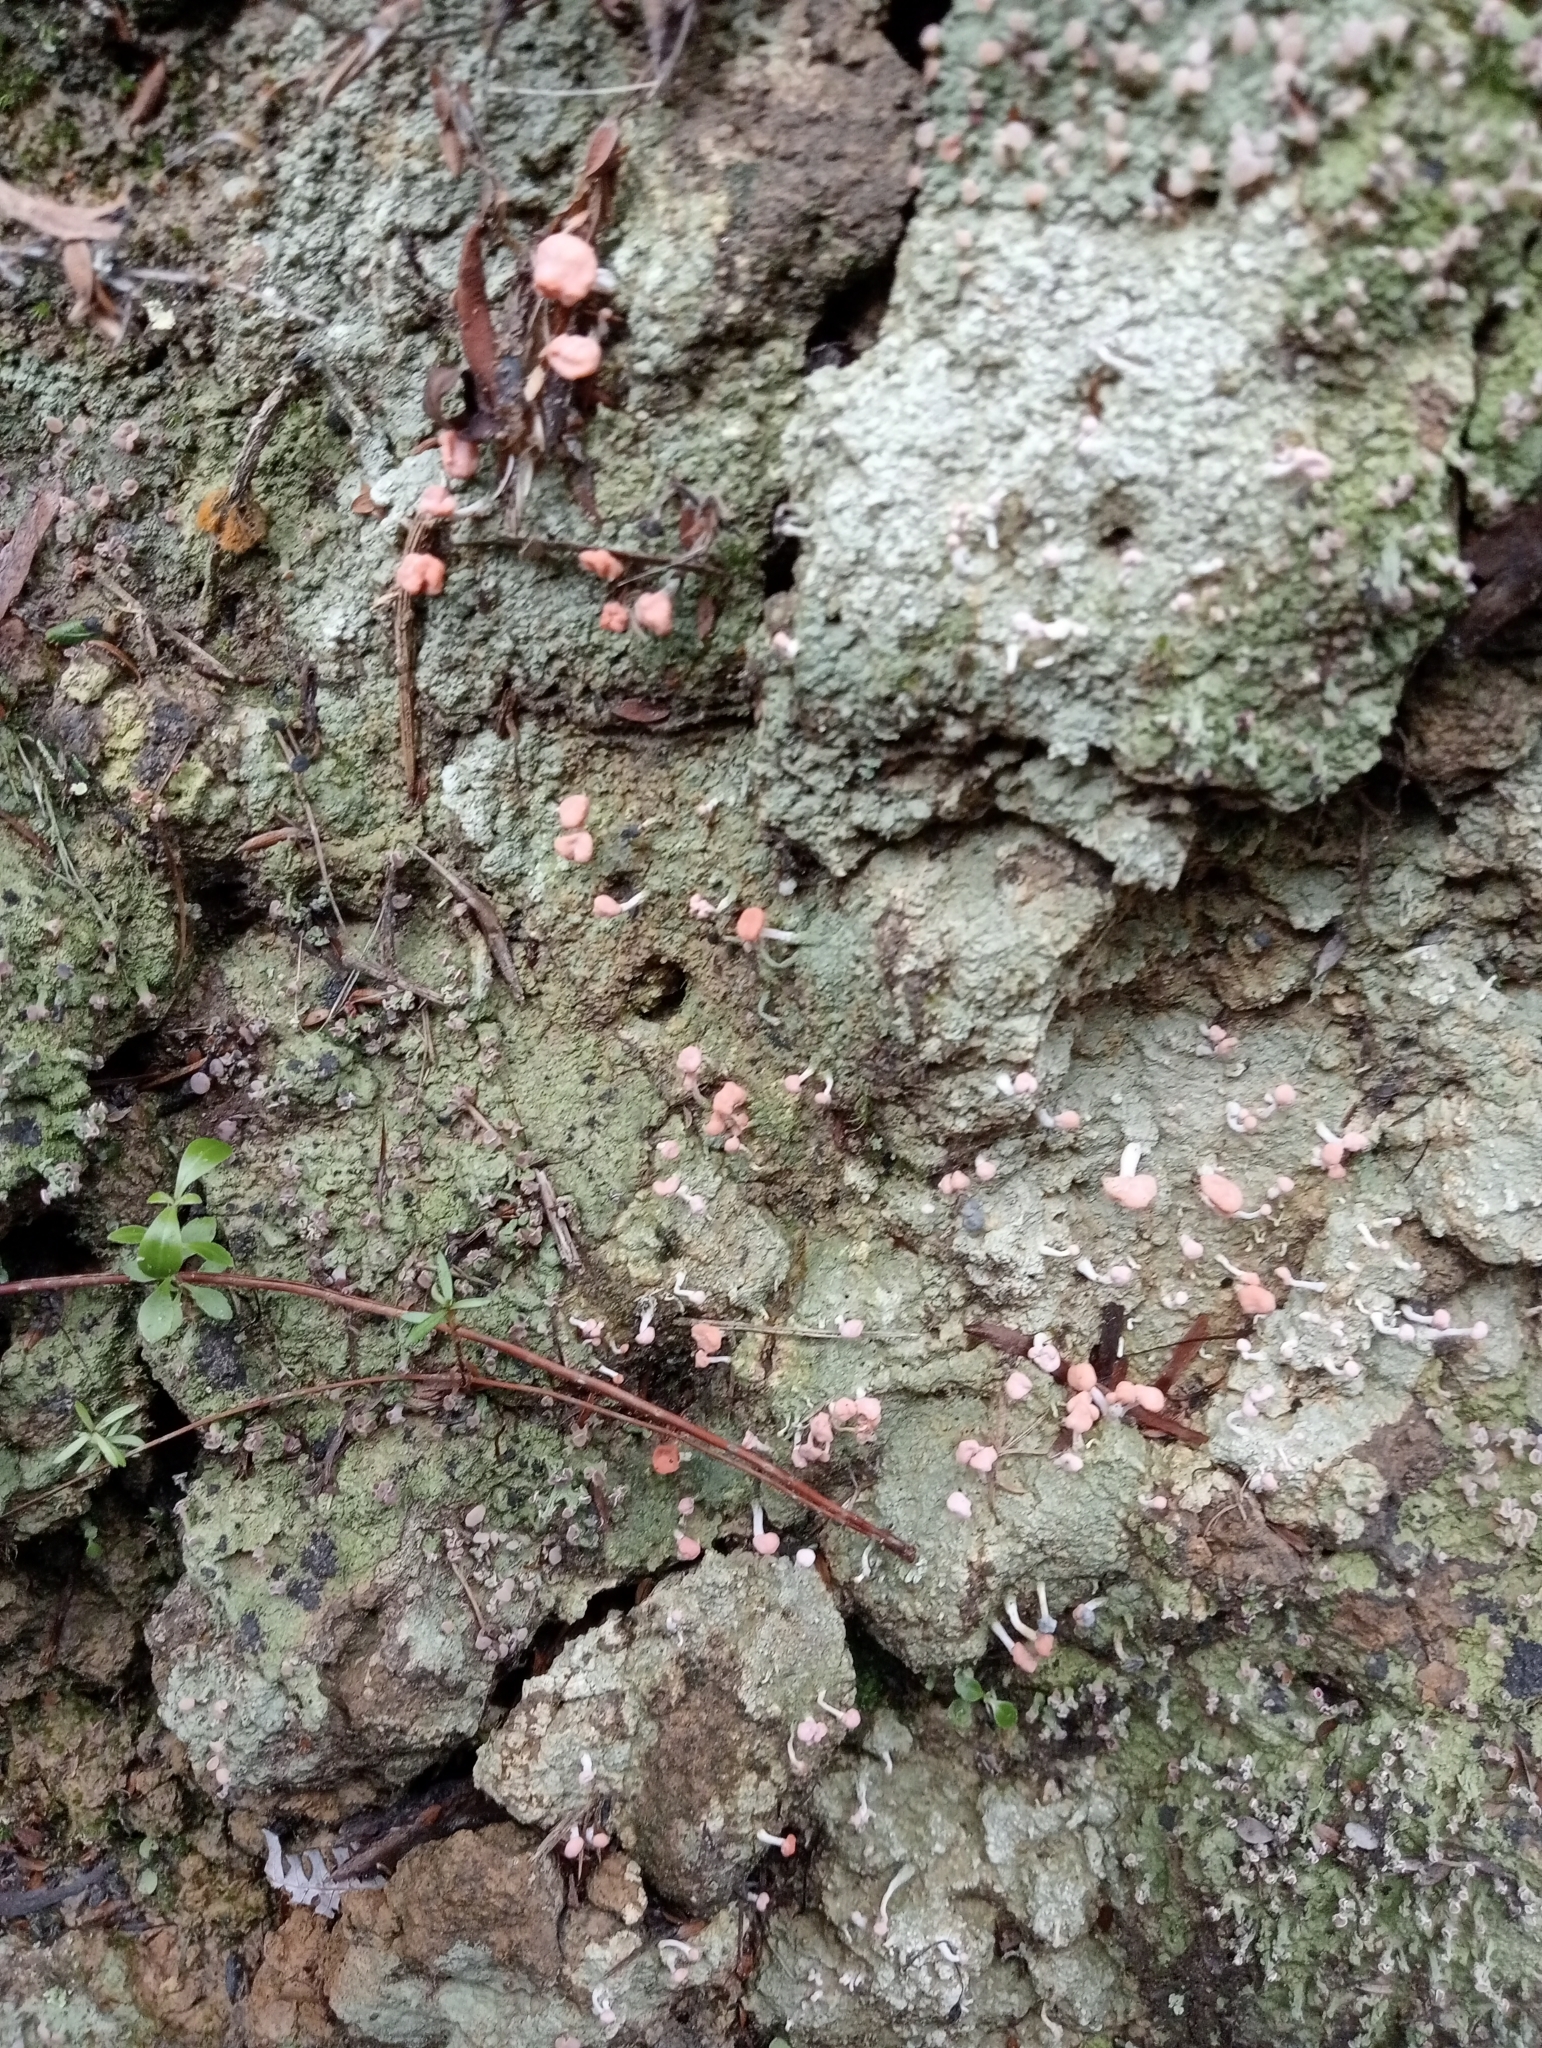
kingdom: Fungi
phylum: Ascomycota
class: Lecanoromycetes
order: Pertusariales
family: Icmadophilaceae
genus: Dibaeis
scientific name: Dibaeis arcuata
